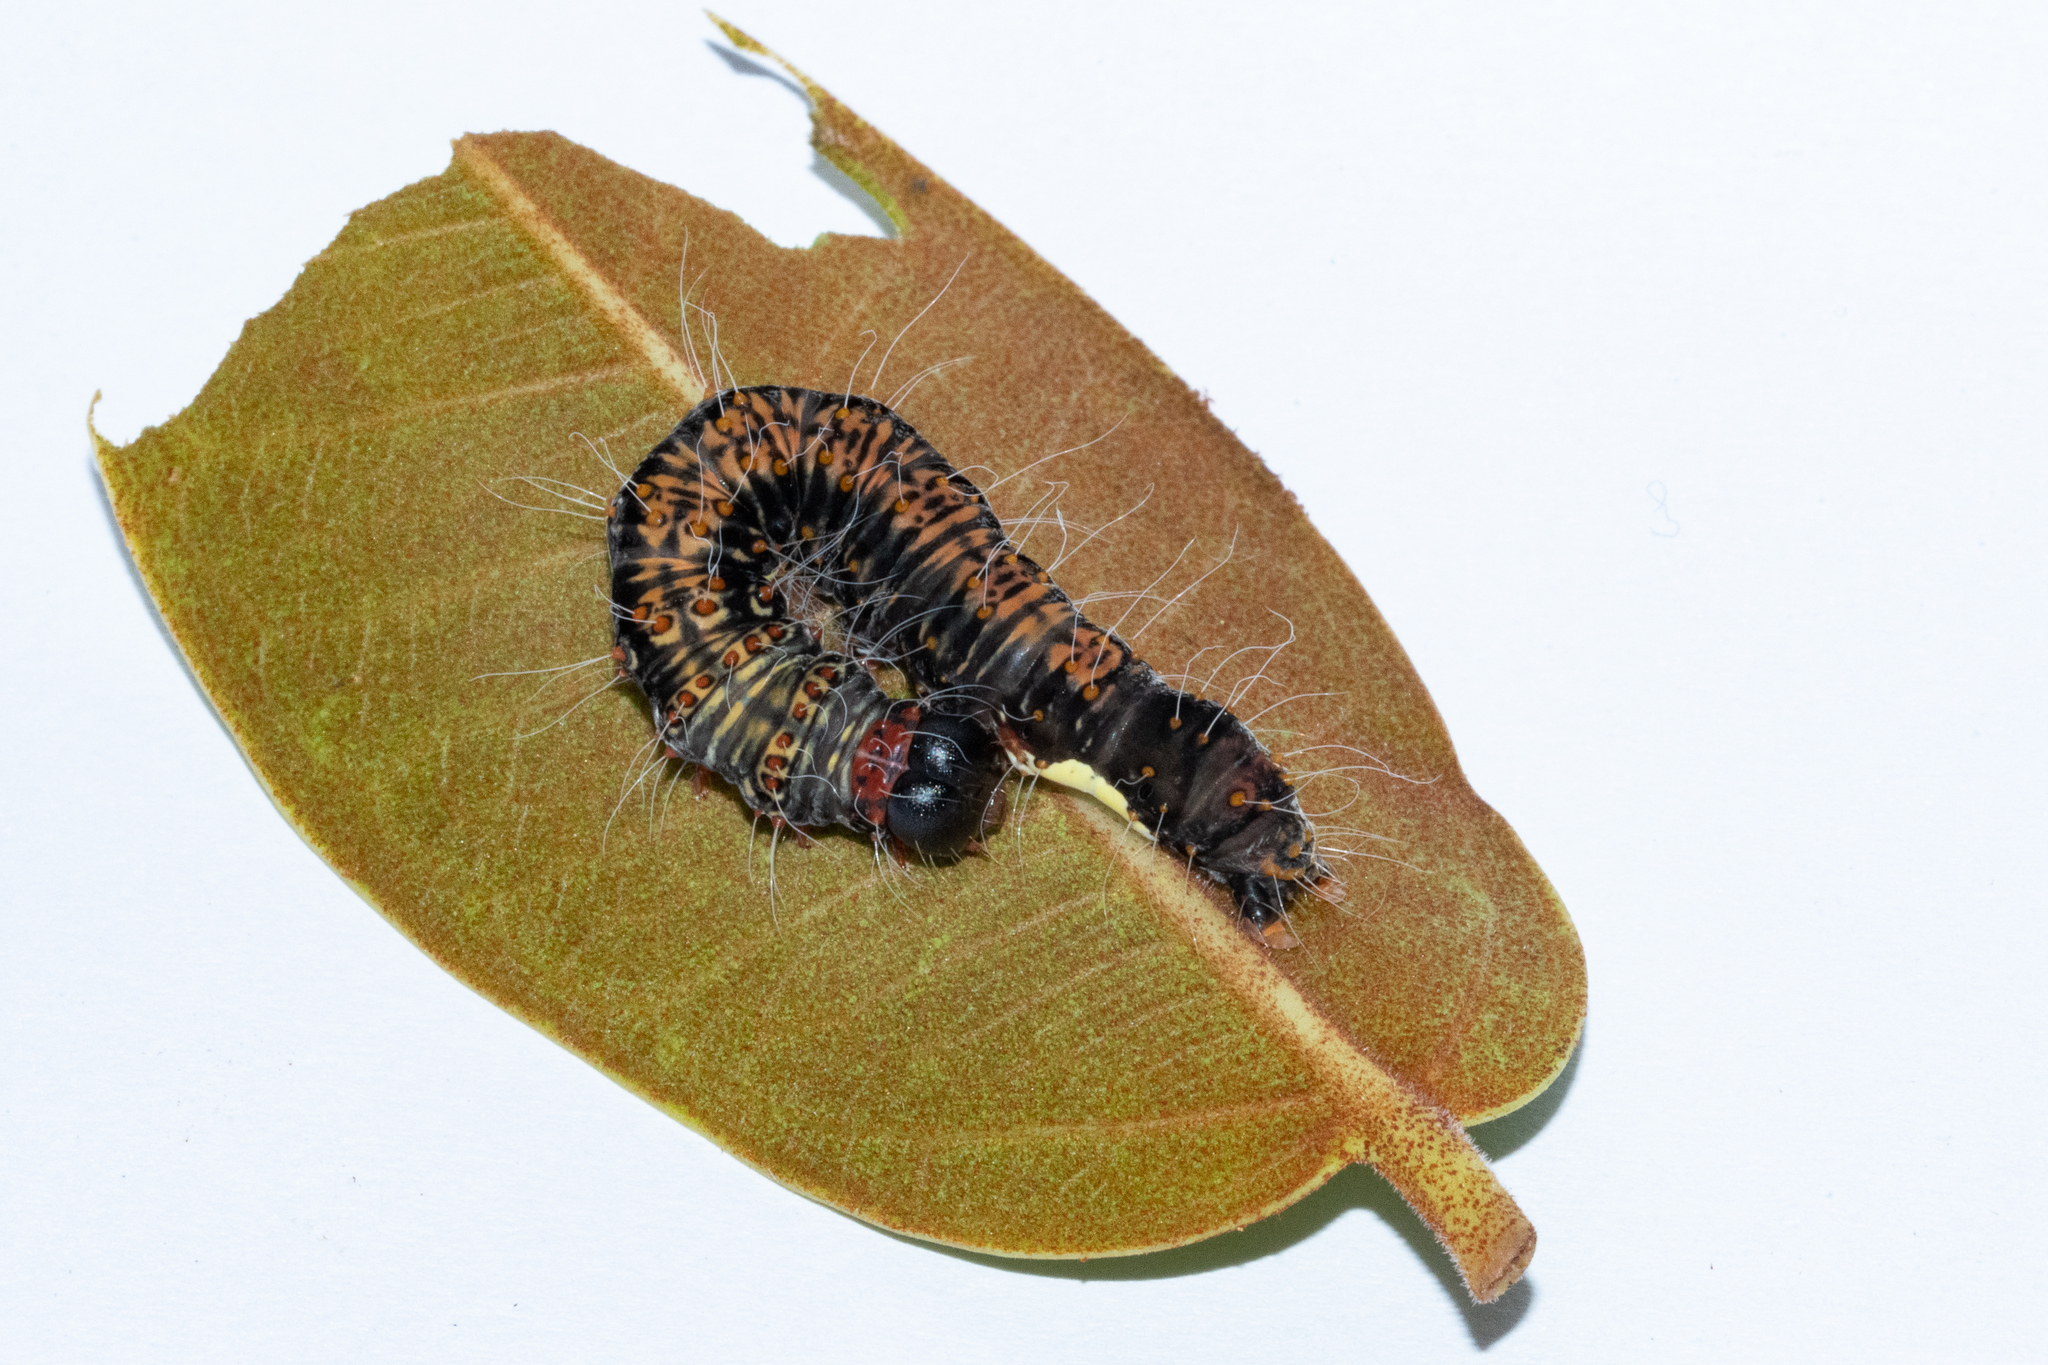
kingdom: Animalia
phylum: Arthropoda
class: Insecta
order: Lepidoptera
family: Erebidae
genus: Asota
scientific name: Asota speciosa
